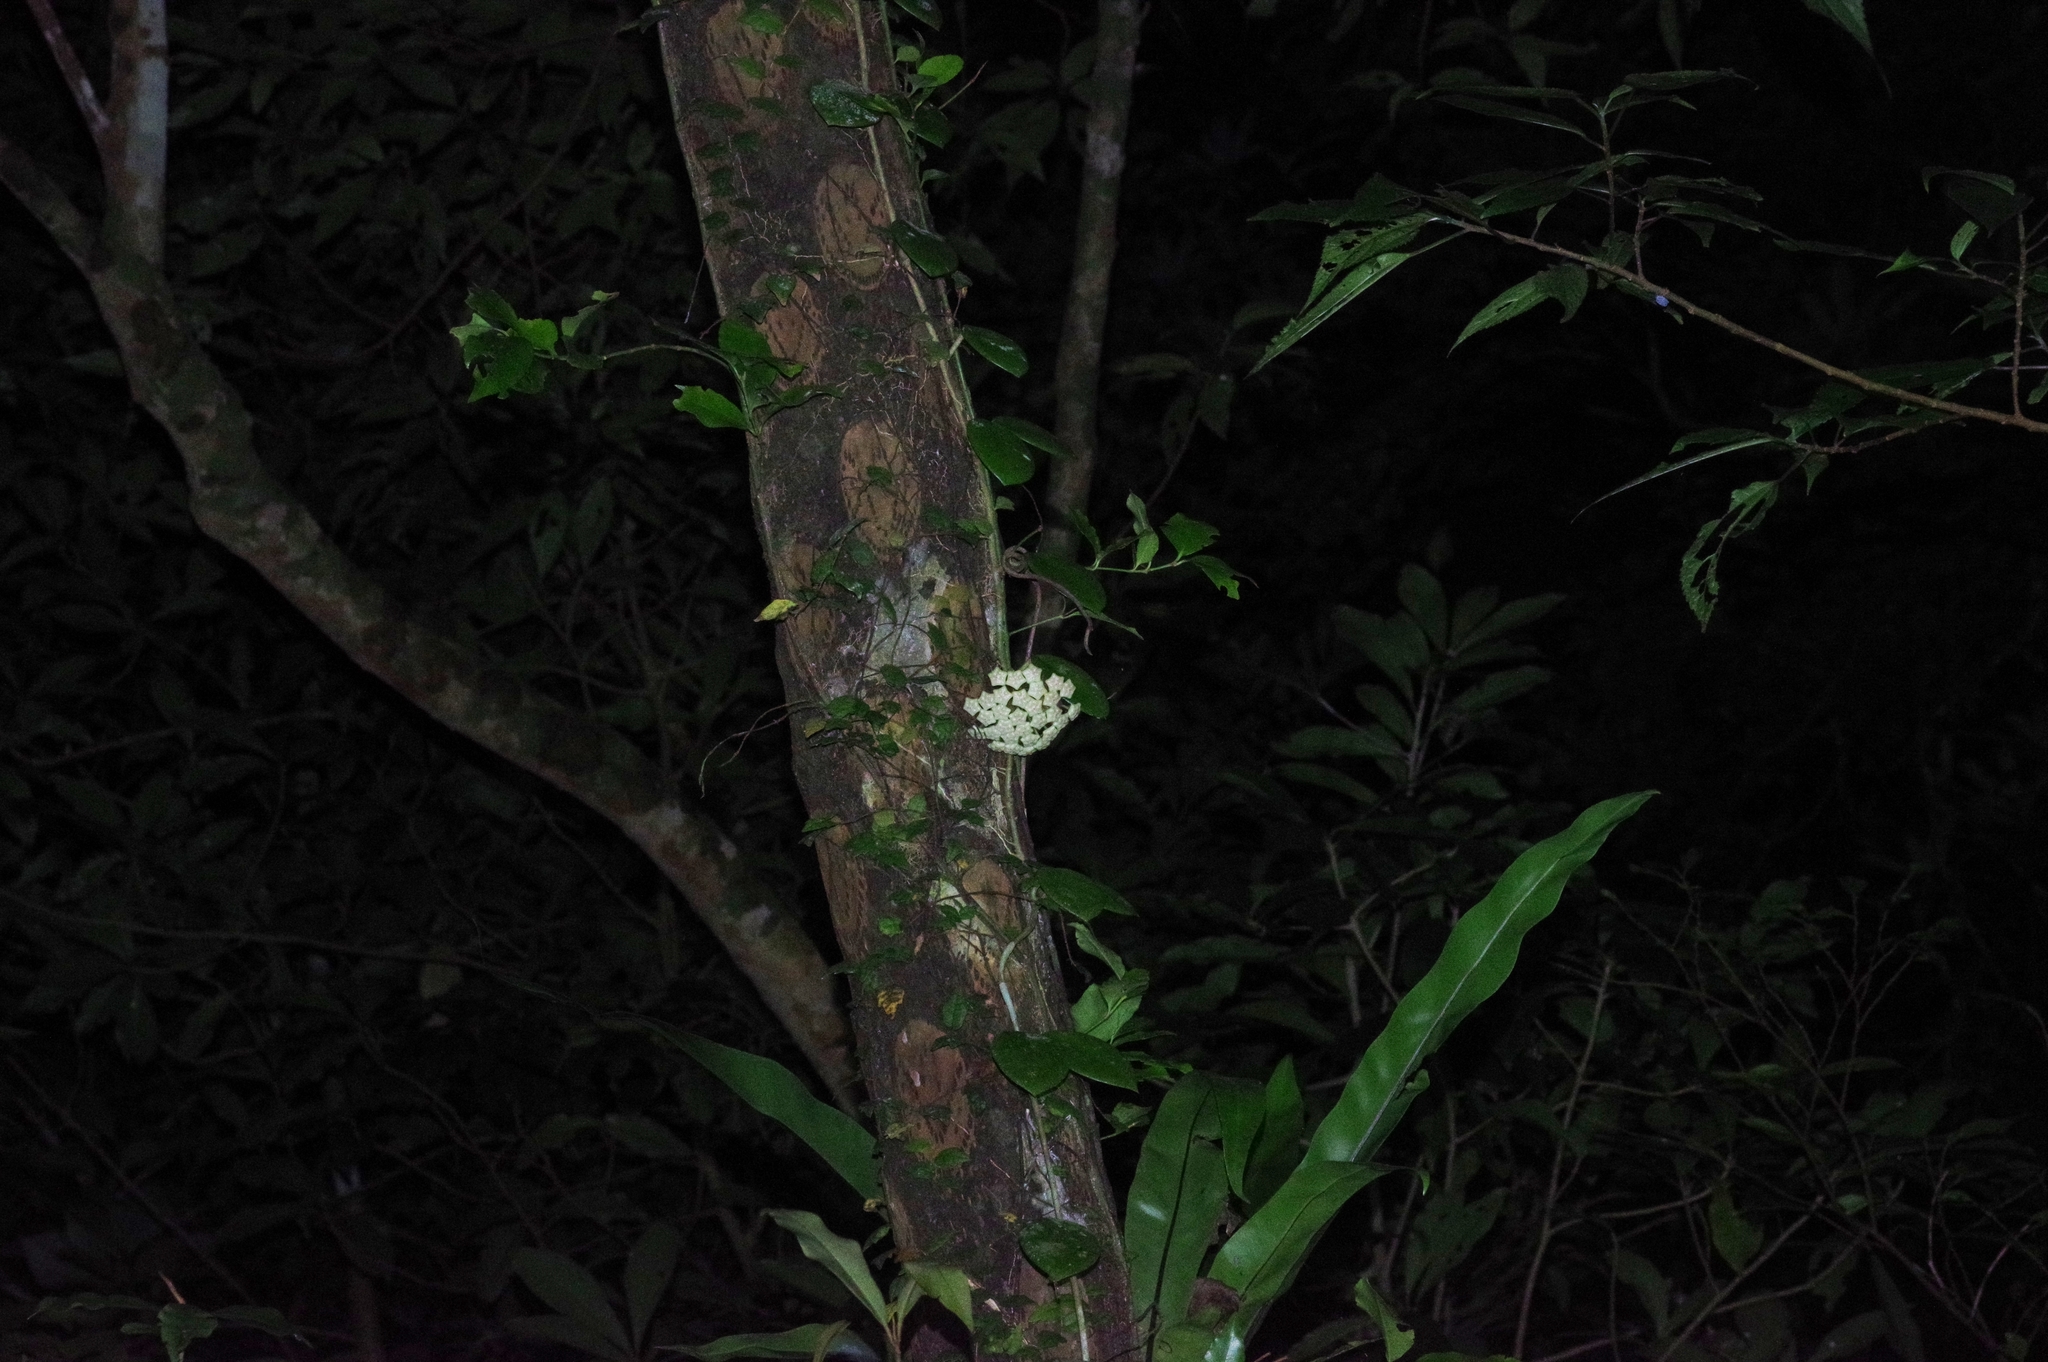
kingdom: Plantae
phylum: Tracheophyta
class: Magnoliopsida
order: Gentianales
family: Apocynaceae
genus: Hoya
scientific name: Hoya carnosa
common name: Honeyplant
